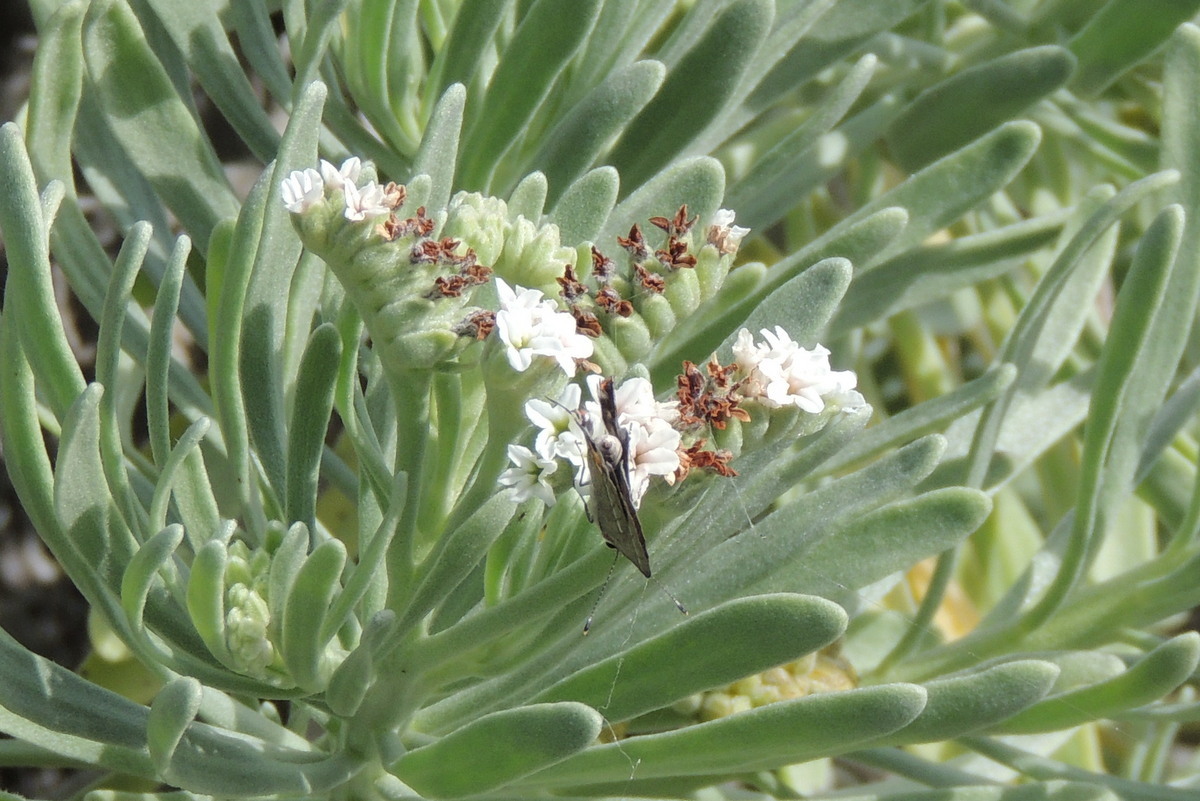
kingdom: Plantae
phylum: Tracheophyta
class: Magnoliopsida
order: Boraginales
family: Heliotropiaceae
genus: Tournefortia
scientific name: Tournefortia gnaphalodes
